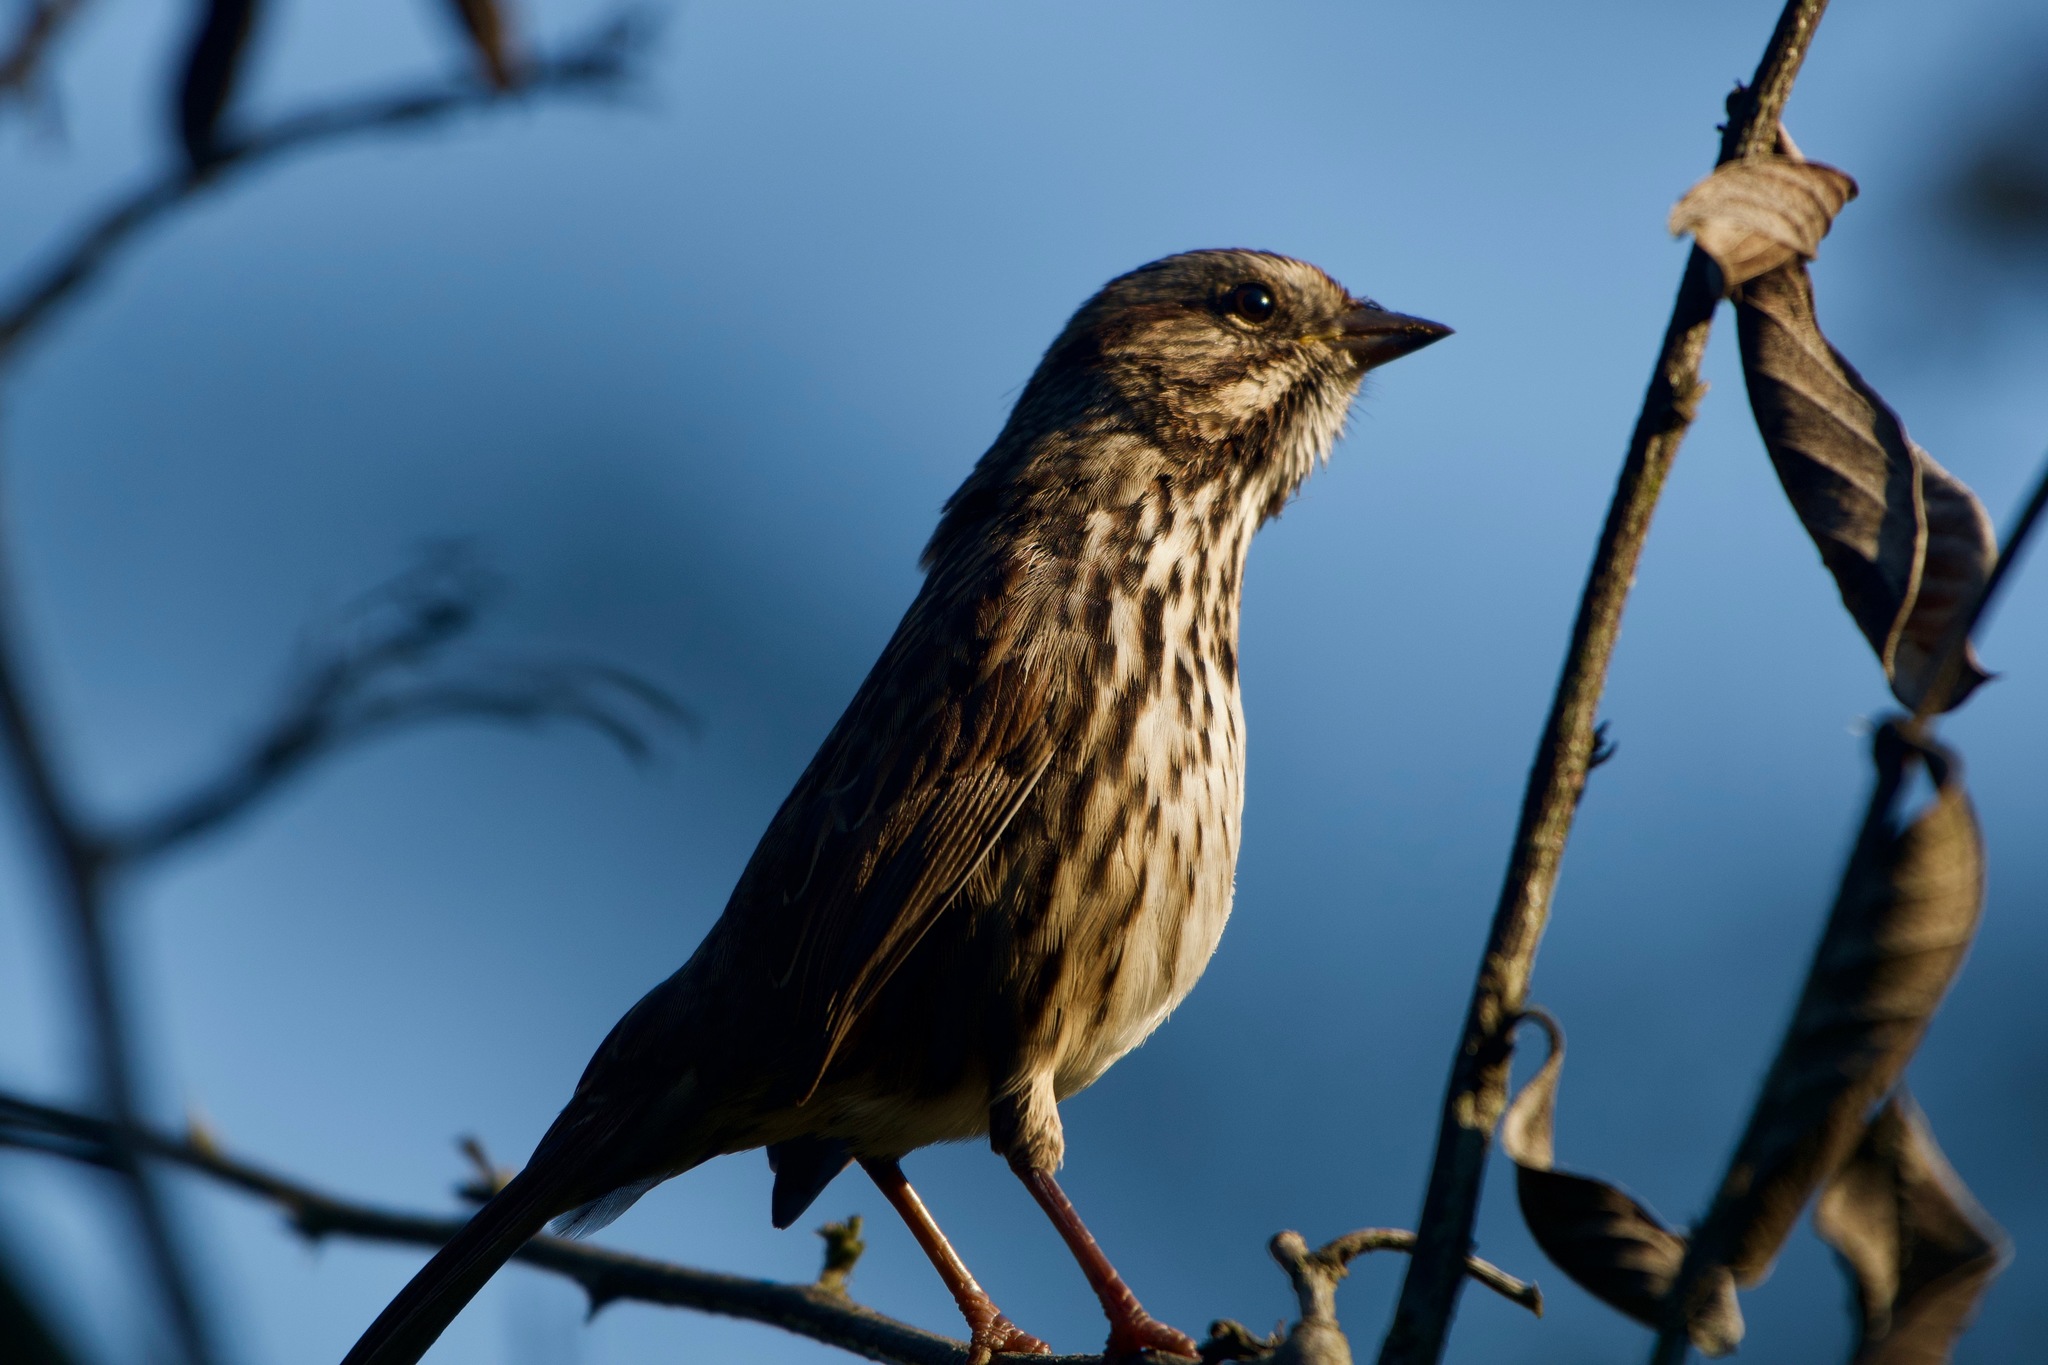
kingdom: Animalia
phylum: Chordata
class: Aves
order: Passeriformes
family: Passerellidae
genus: Melospiza
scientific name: Melospiza melodia
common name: Song sparrow
